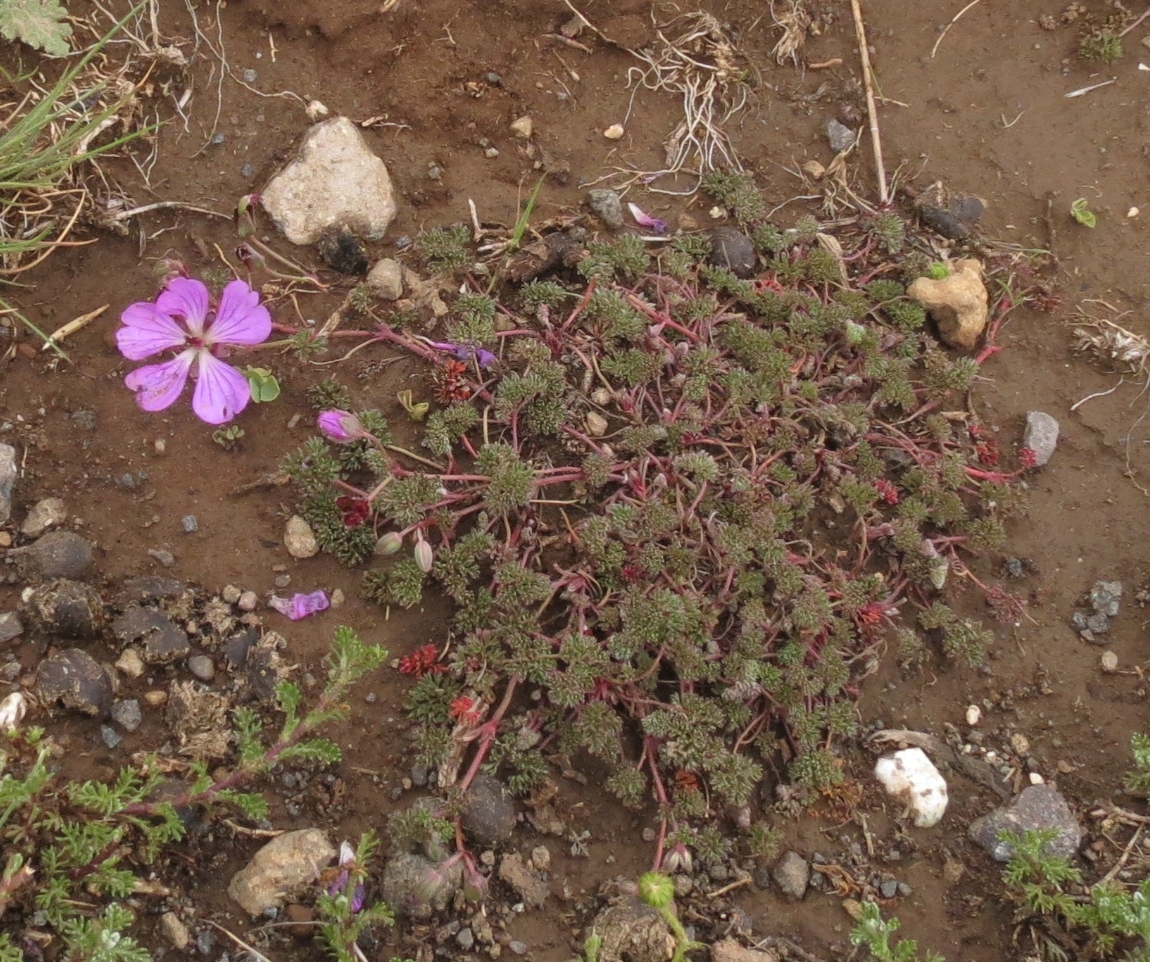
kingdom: Plantae
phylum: Tracheophyta
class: Magnoliopsida
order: Geraniales
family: Geraniaceae
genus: Geranium
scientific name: Geranium multisectum
